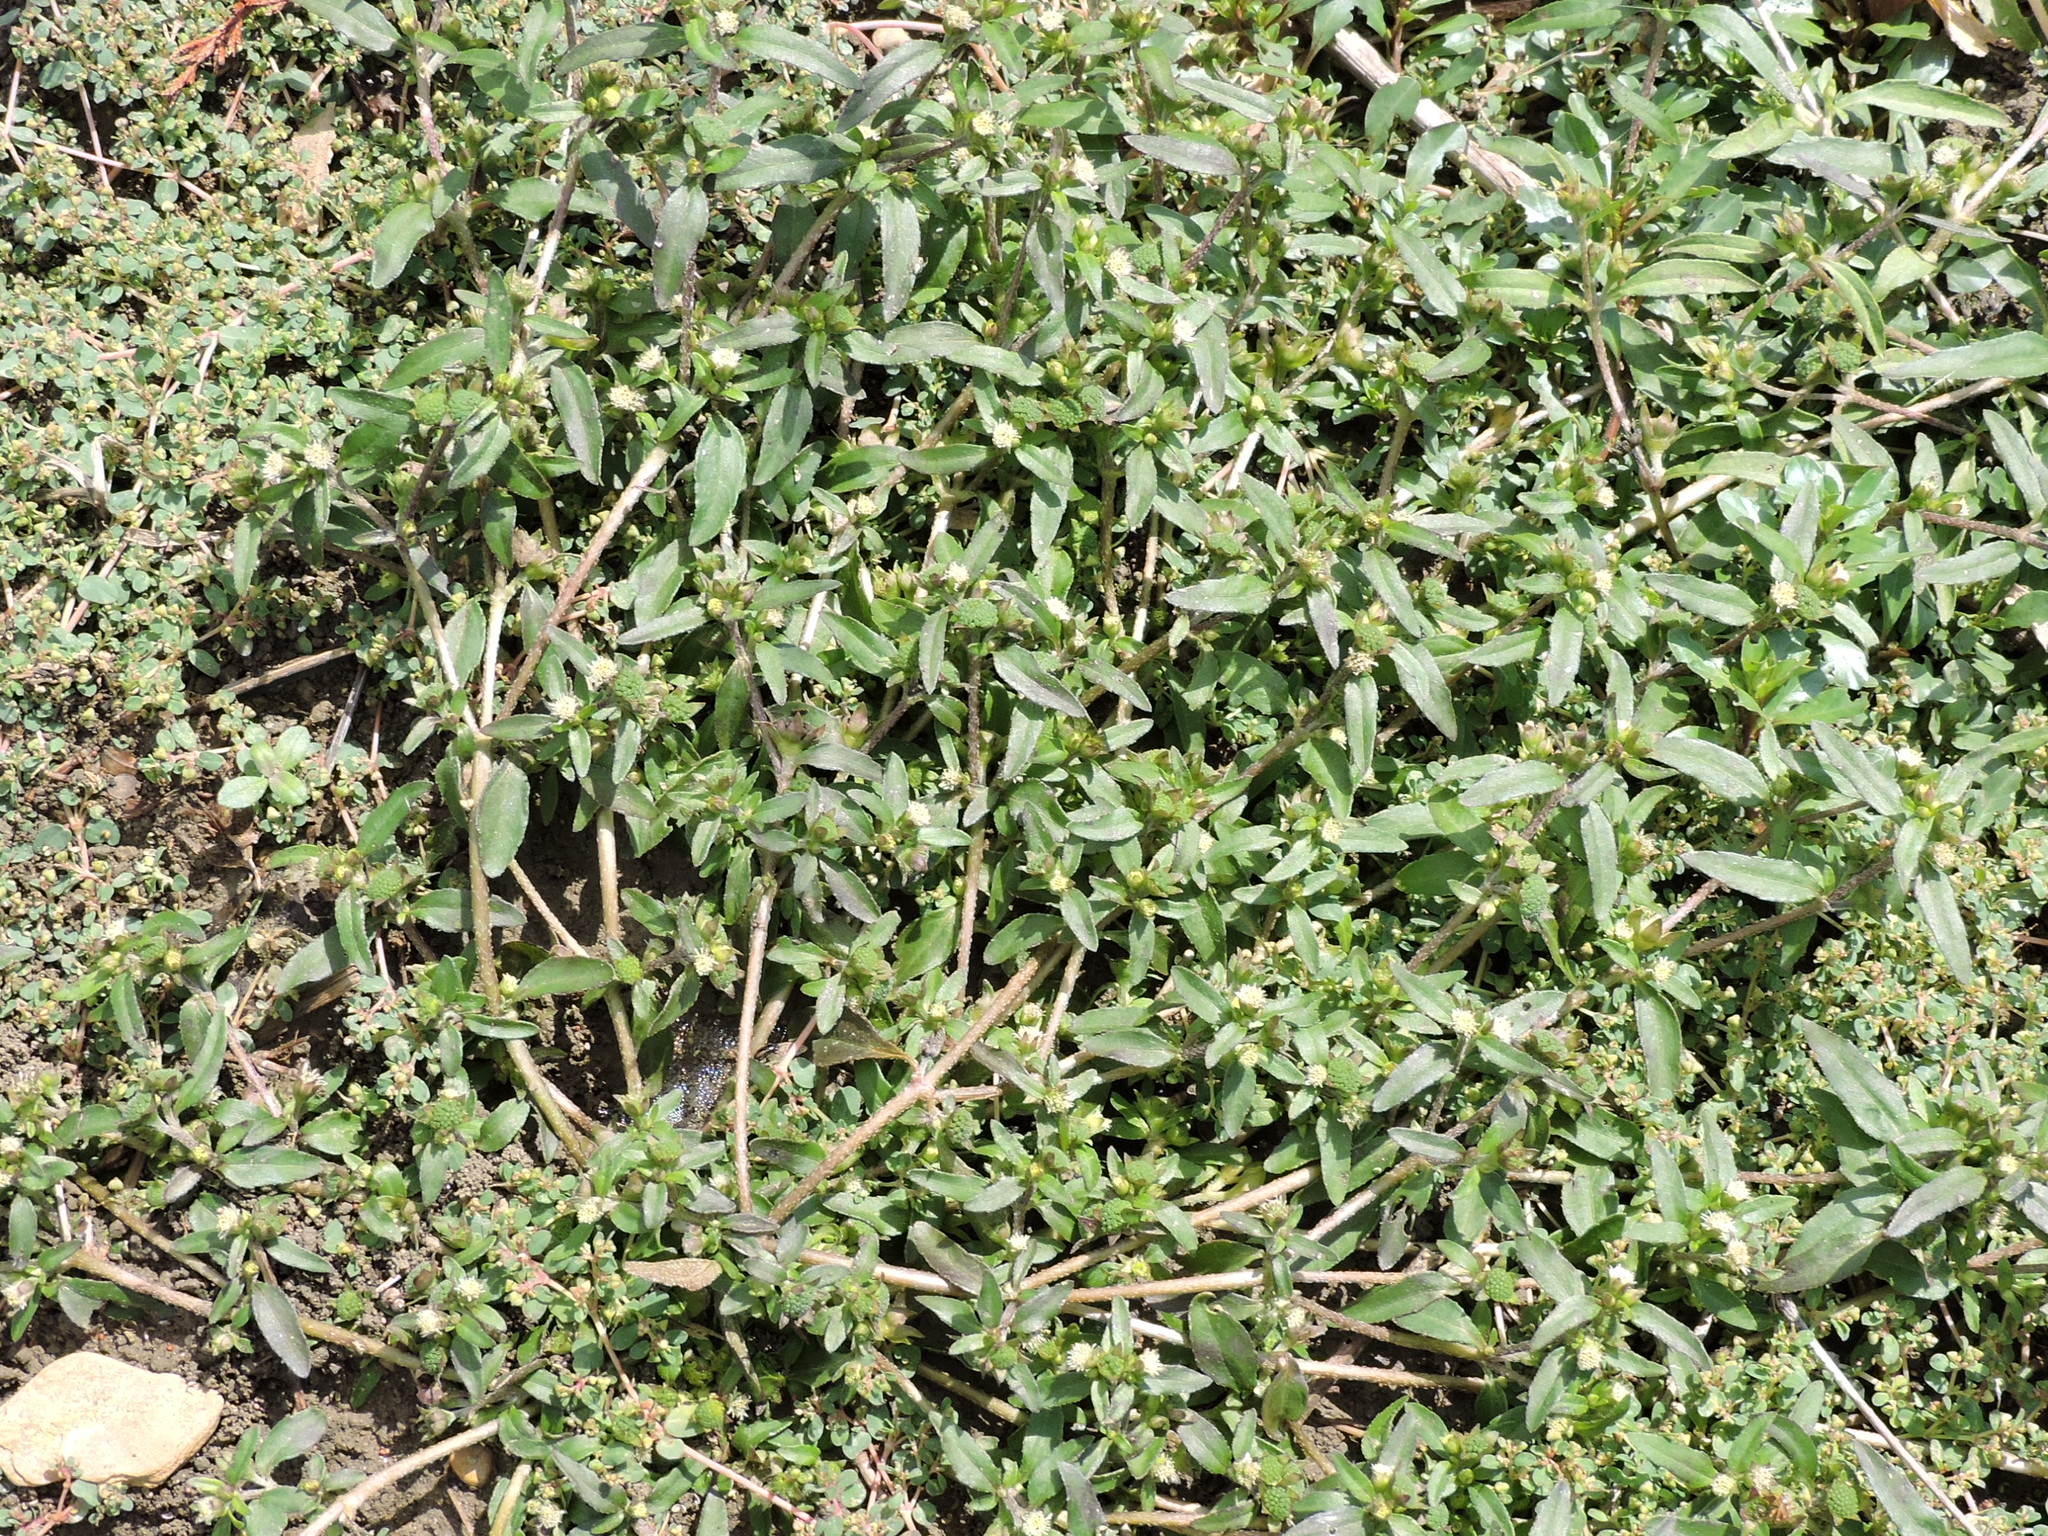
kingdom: Plantae
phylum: Tracheophyta
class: Magnoliopsida
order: Asterales
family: Asteraceae
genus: Eclipta
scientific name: Eclipta prostrata
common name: False daisy
